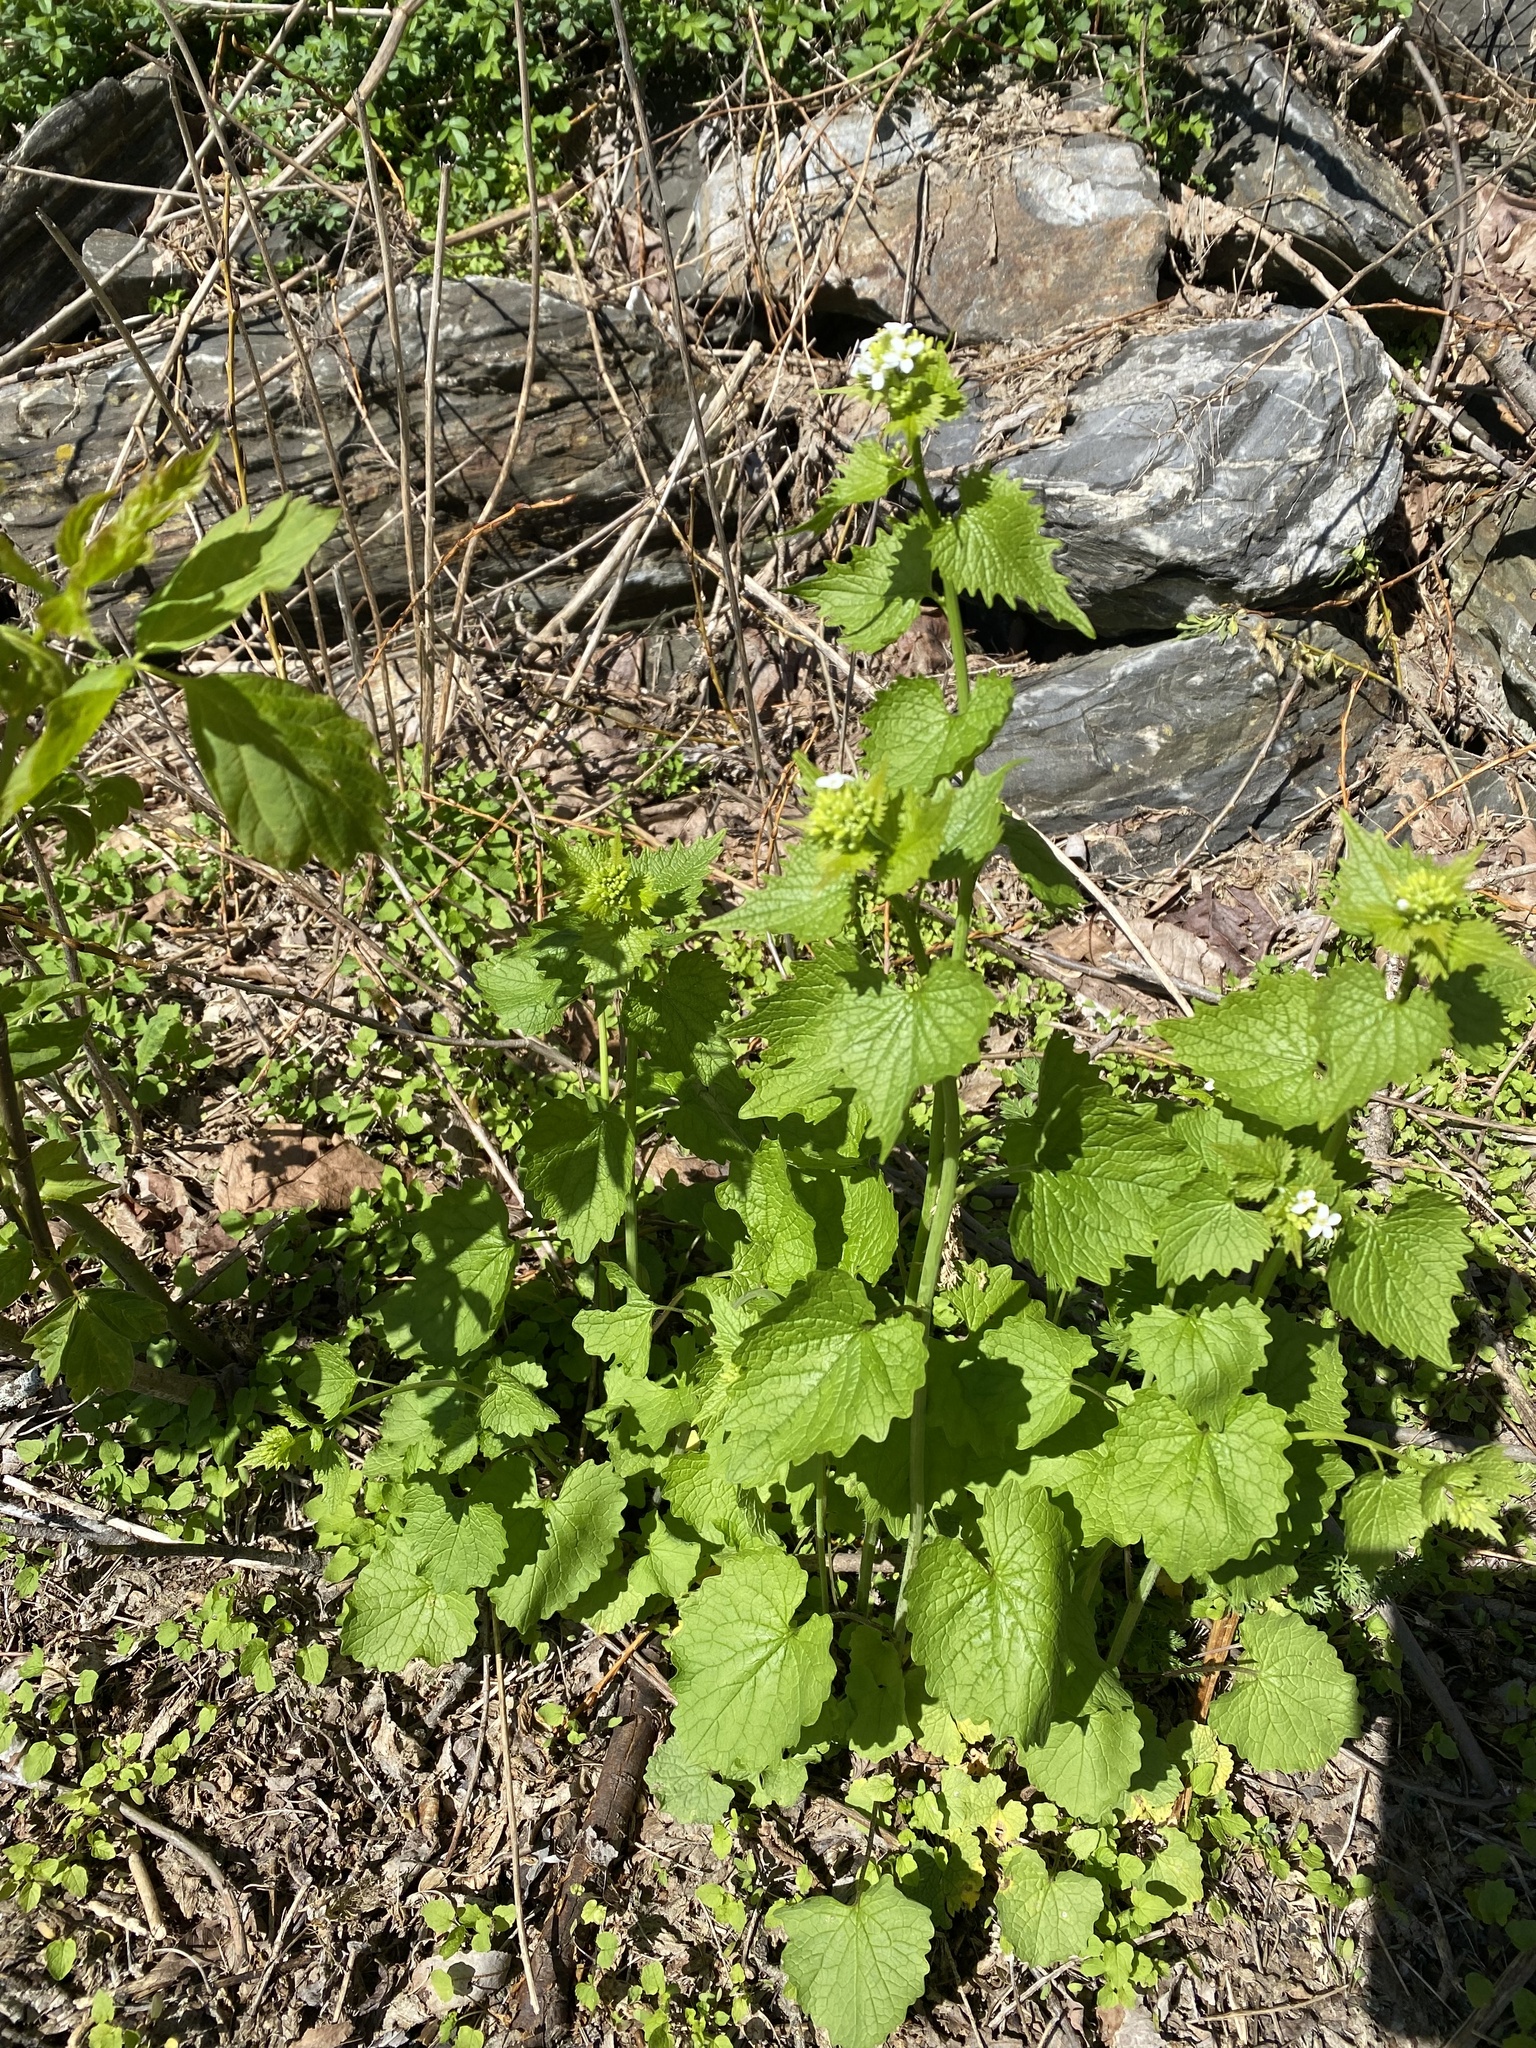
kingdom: Plantae
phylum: Tracheophyta
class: Magnoliopsida
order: Brassicales
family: Brassicaceae
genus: Alliaria
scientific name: Alliaria petiolata
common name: Garlic mustard
